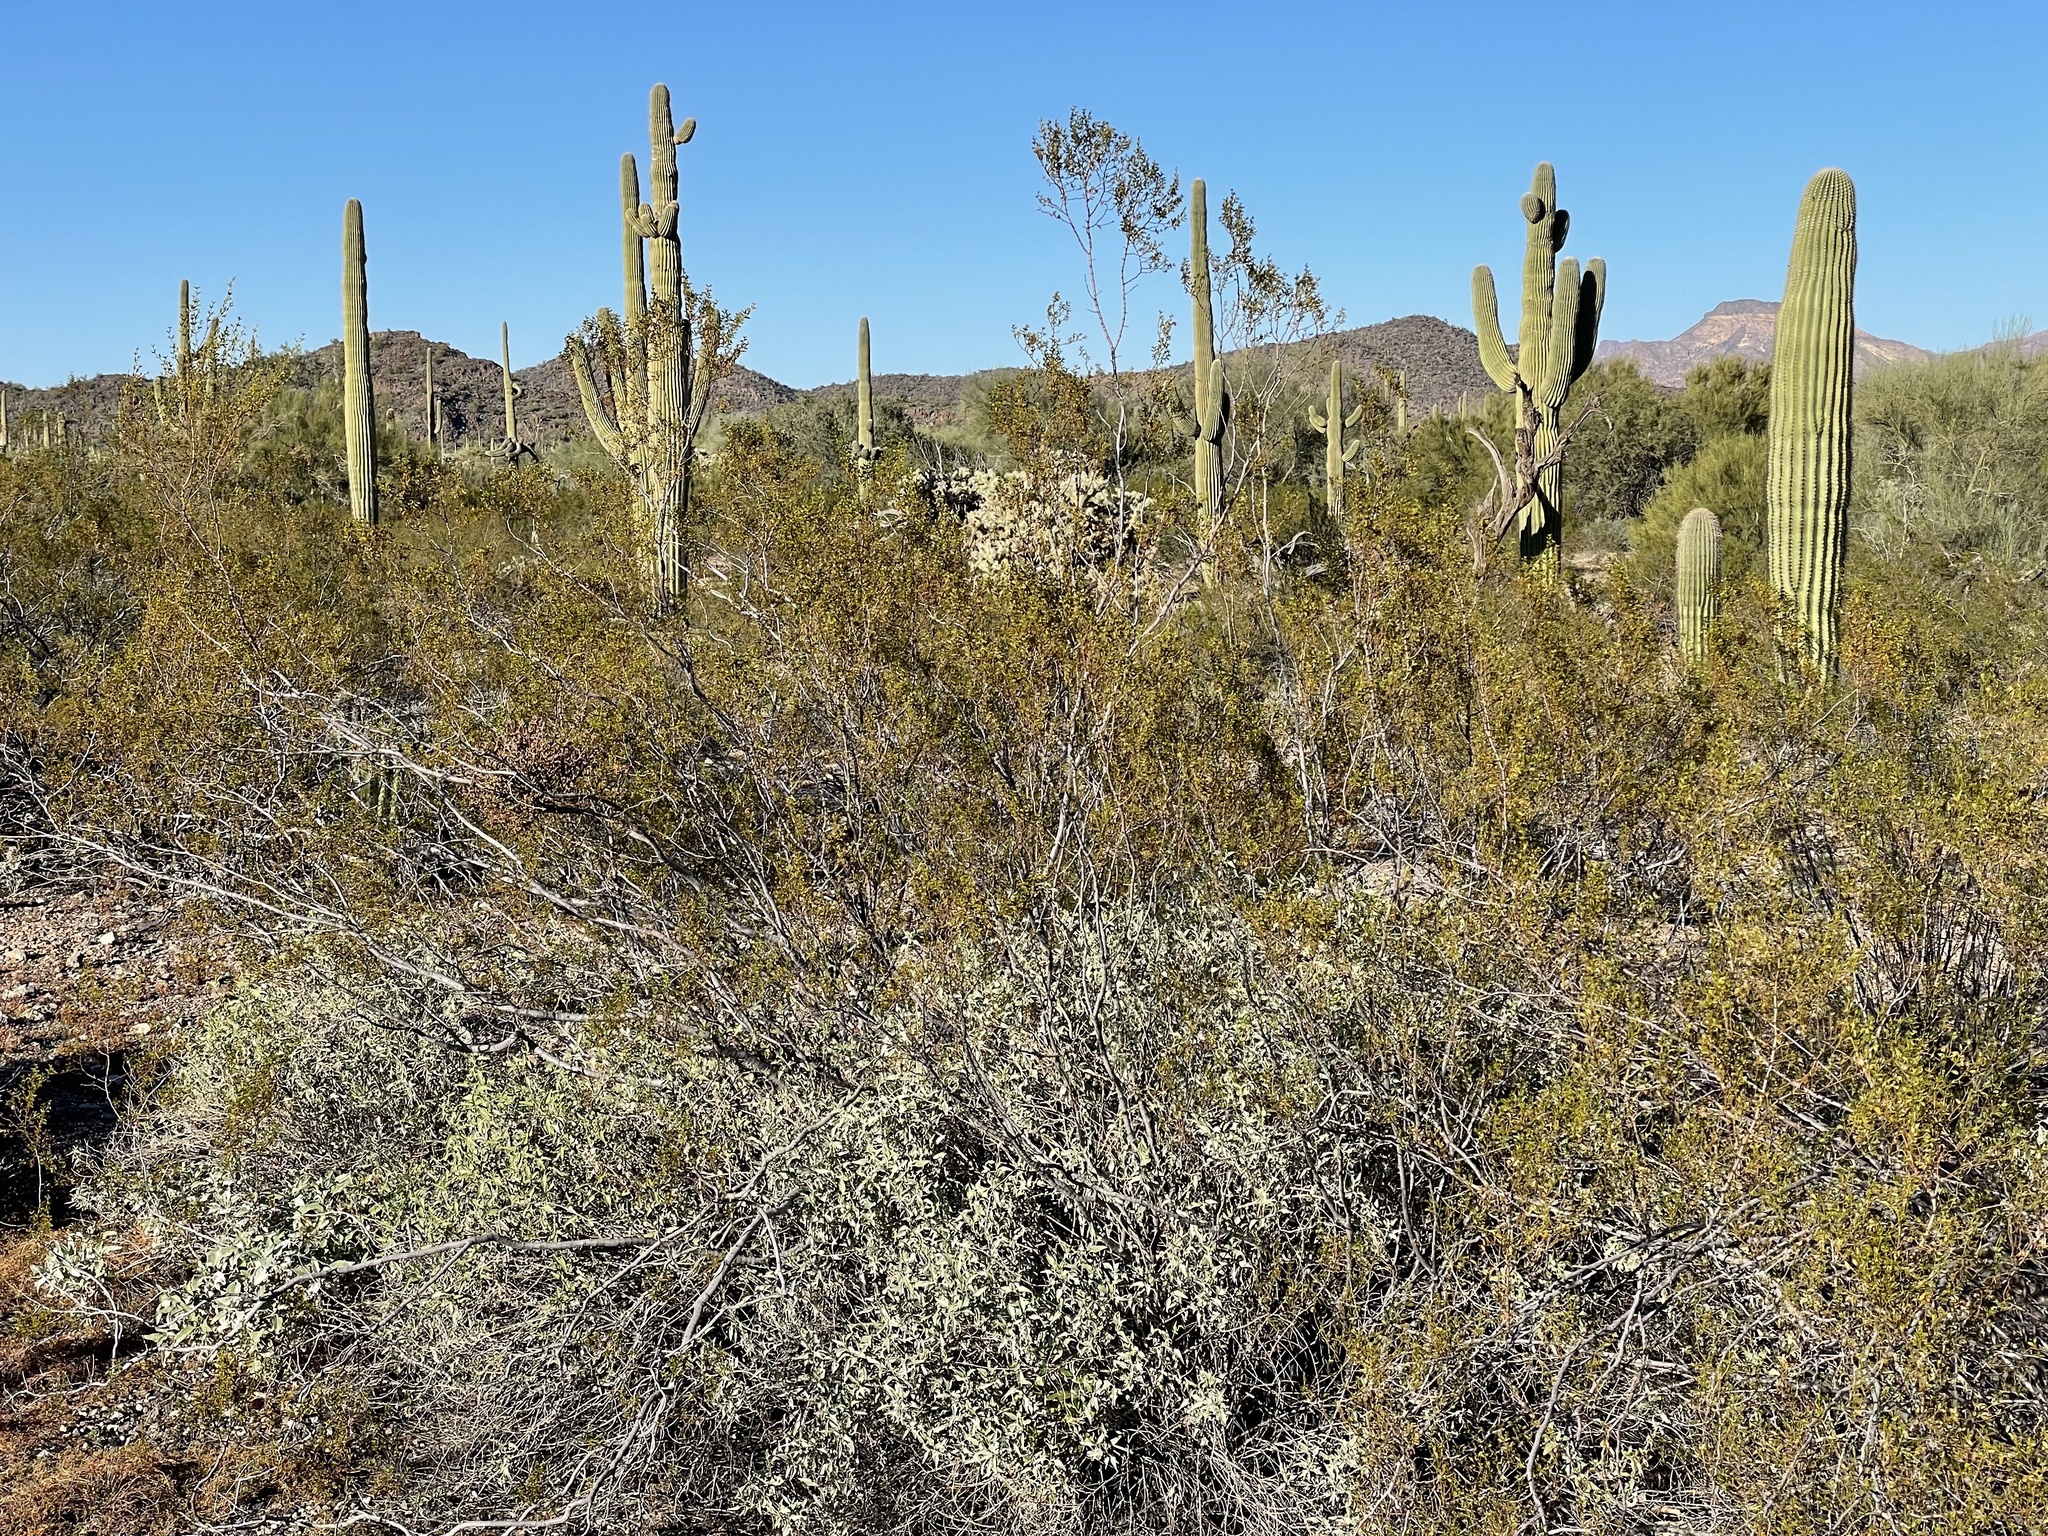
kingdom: Plantae
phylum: Tracheophyta
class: Magnoliopsida
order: Zygophyllales
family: Zygophyllaceae
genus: Larrea
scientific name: Larrea tridentata
